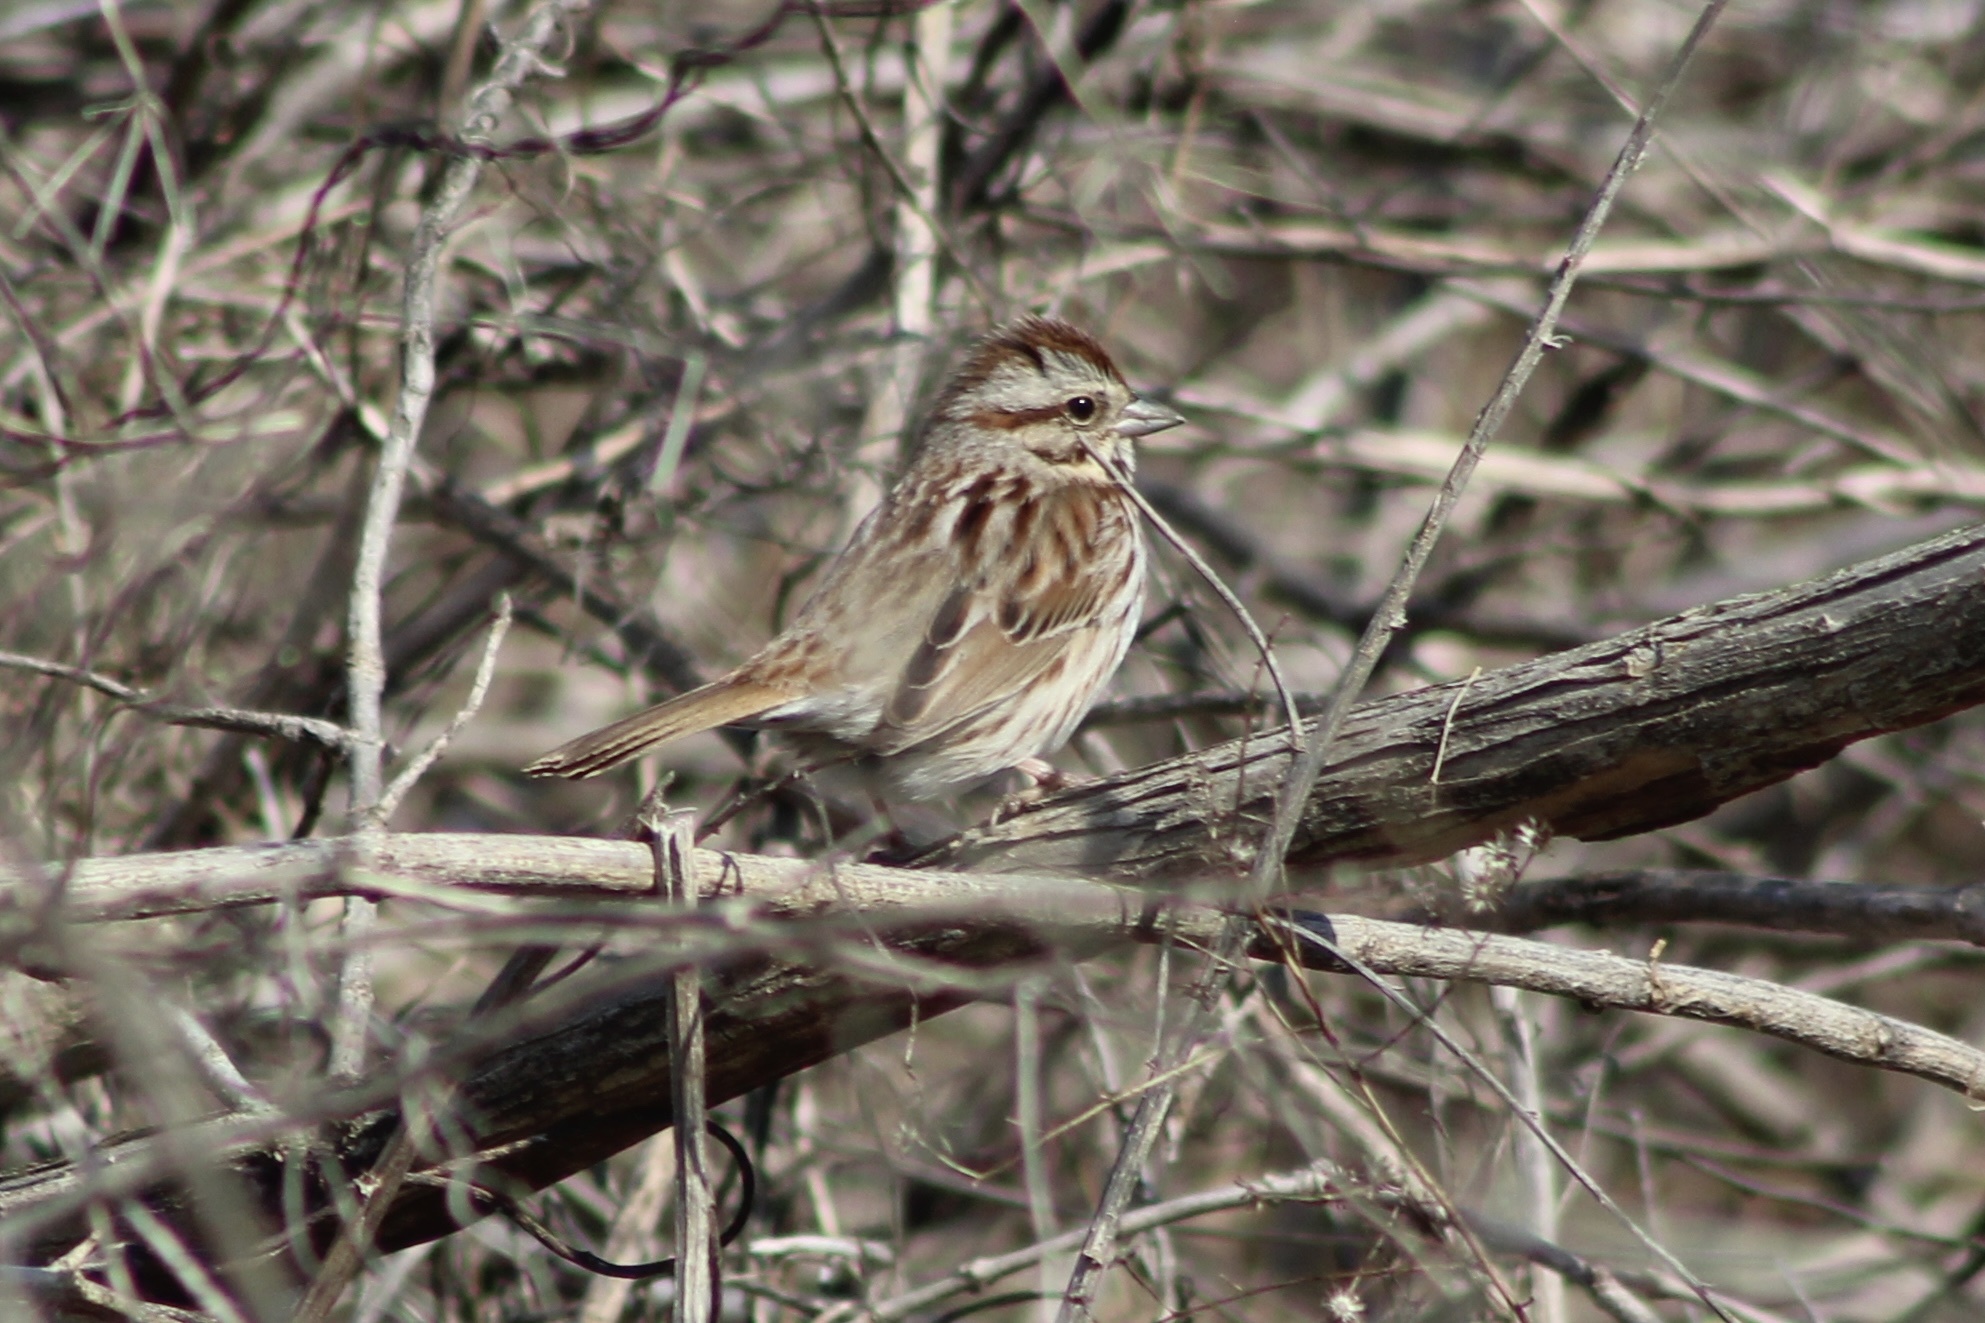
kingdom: Animalia
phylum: Chordata
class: Aves
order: Passeriformes
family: Passerellidae
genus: Melospiza
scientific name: Melospiza melodia
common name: Song sparrow
